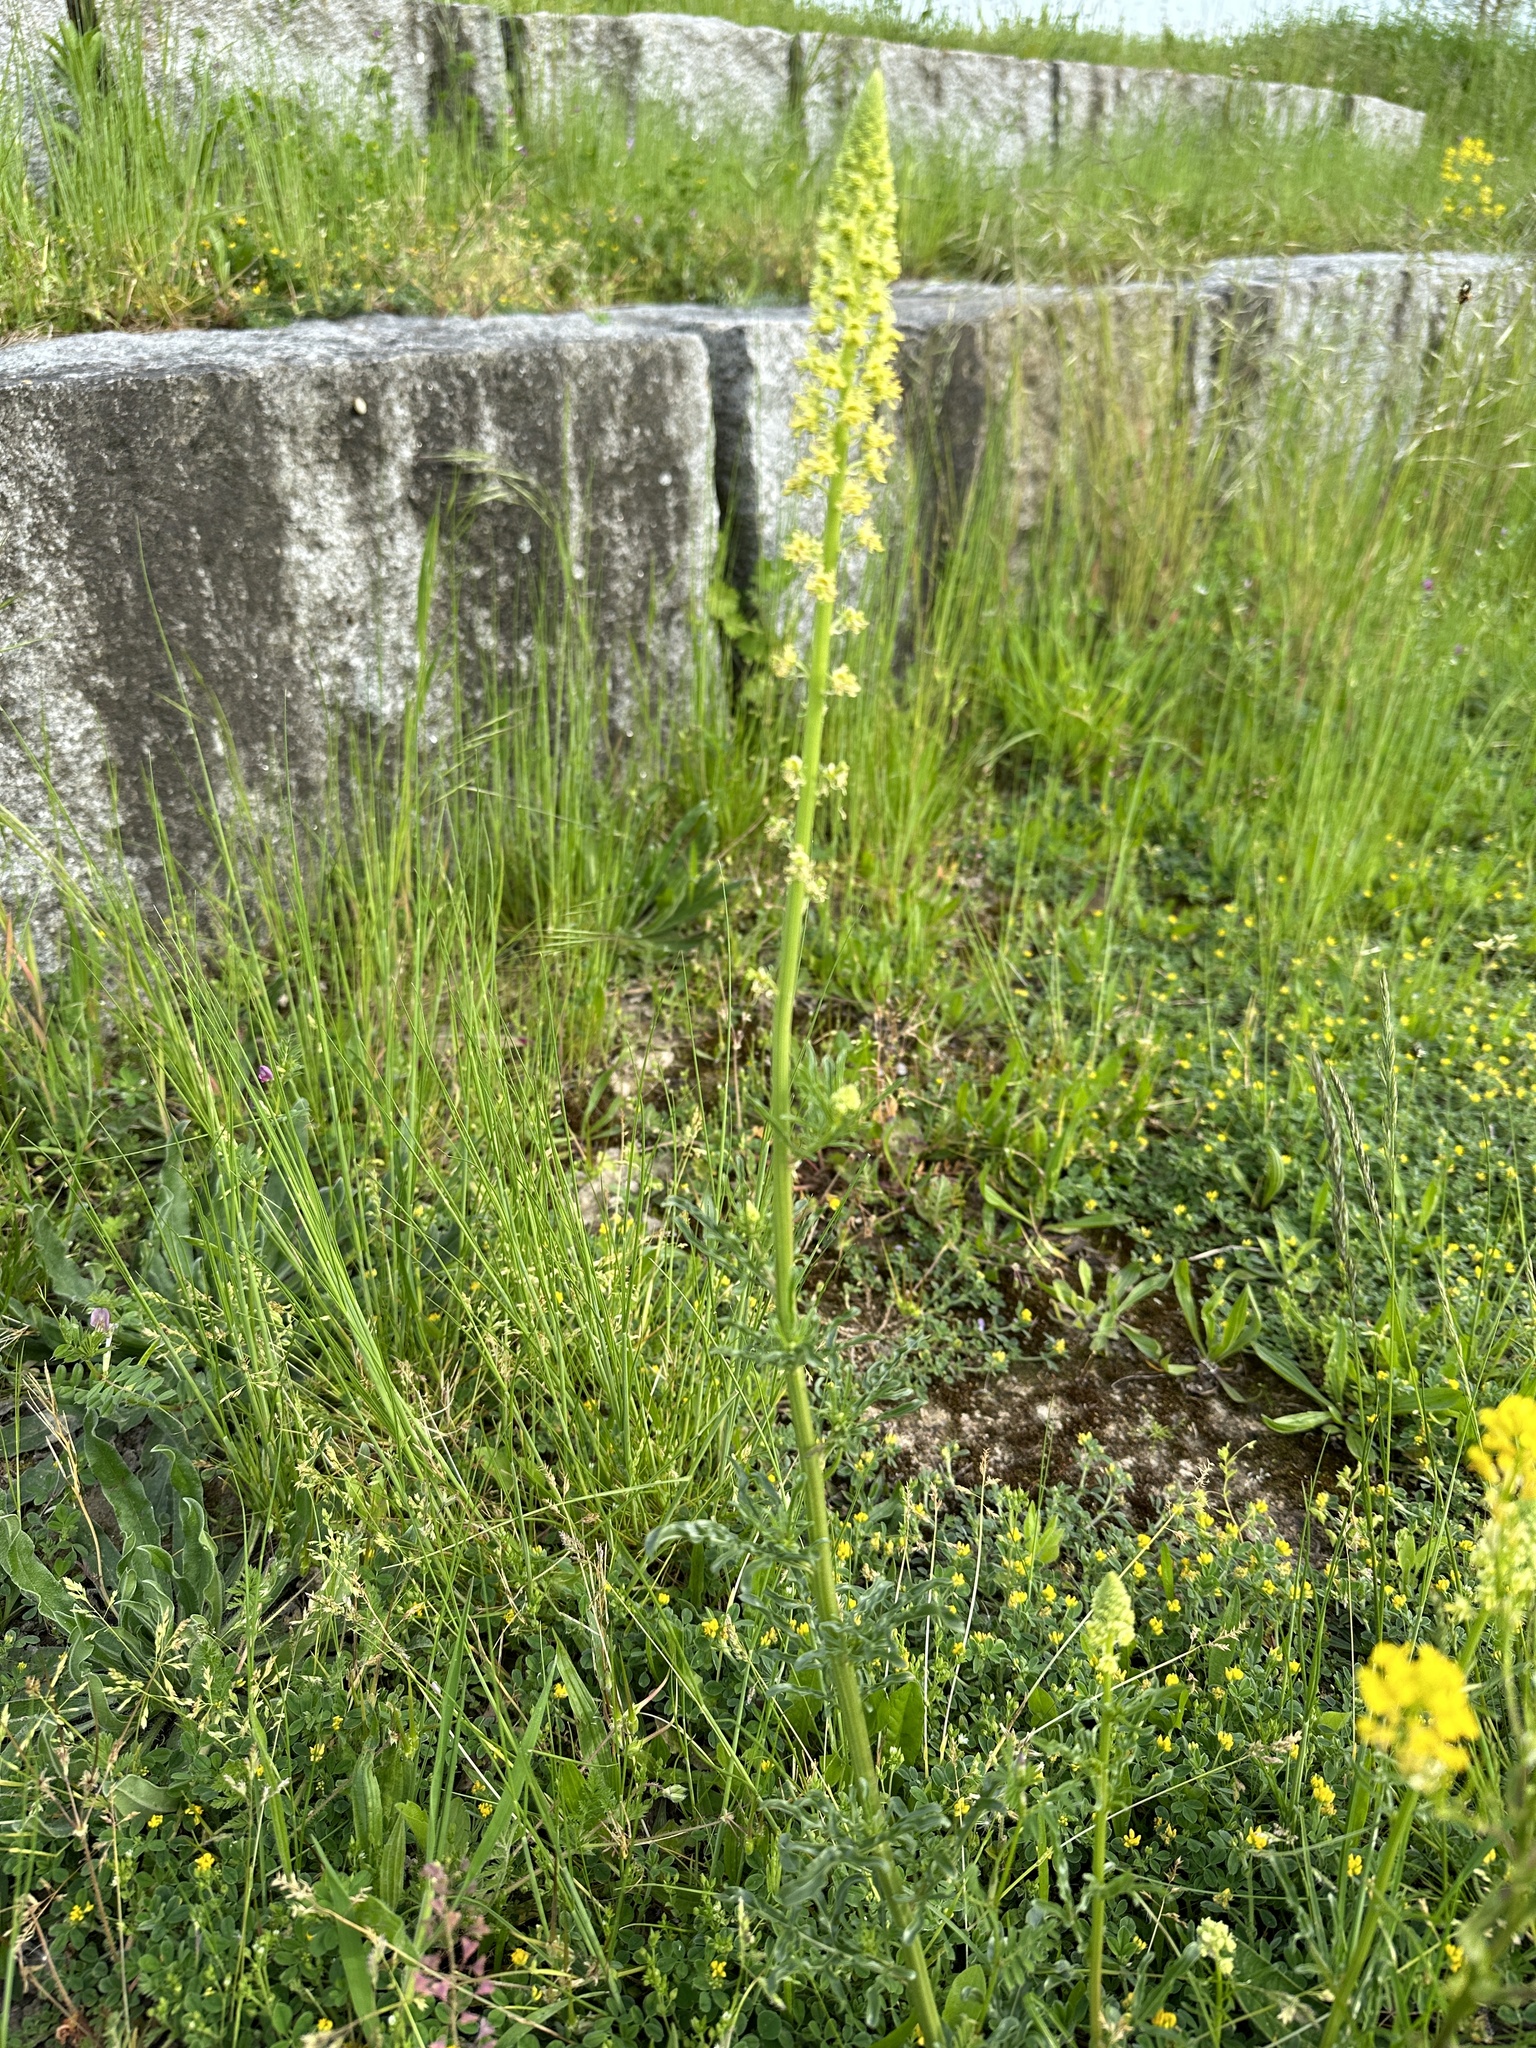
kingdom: Plantae
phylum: Tracheophyta
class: Magnoliopsida
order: Brassicales
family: Resedaceae
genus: Reseda
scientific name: Reseda lutea
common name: Wild mignonette
